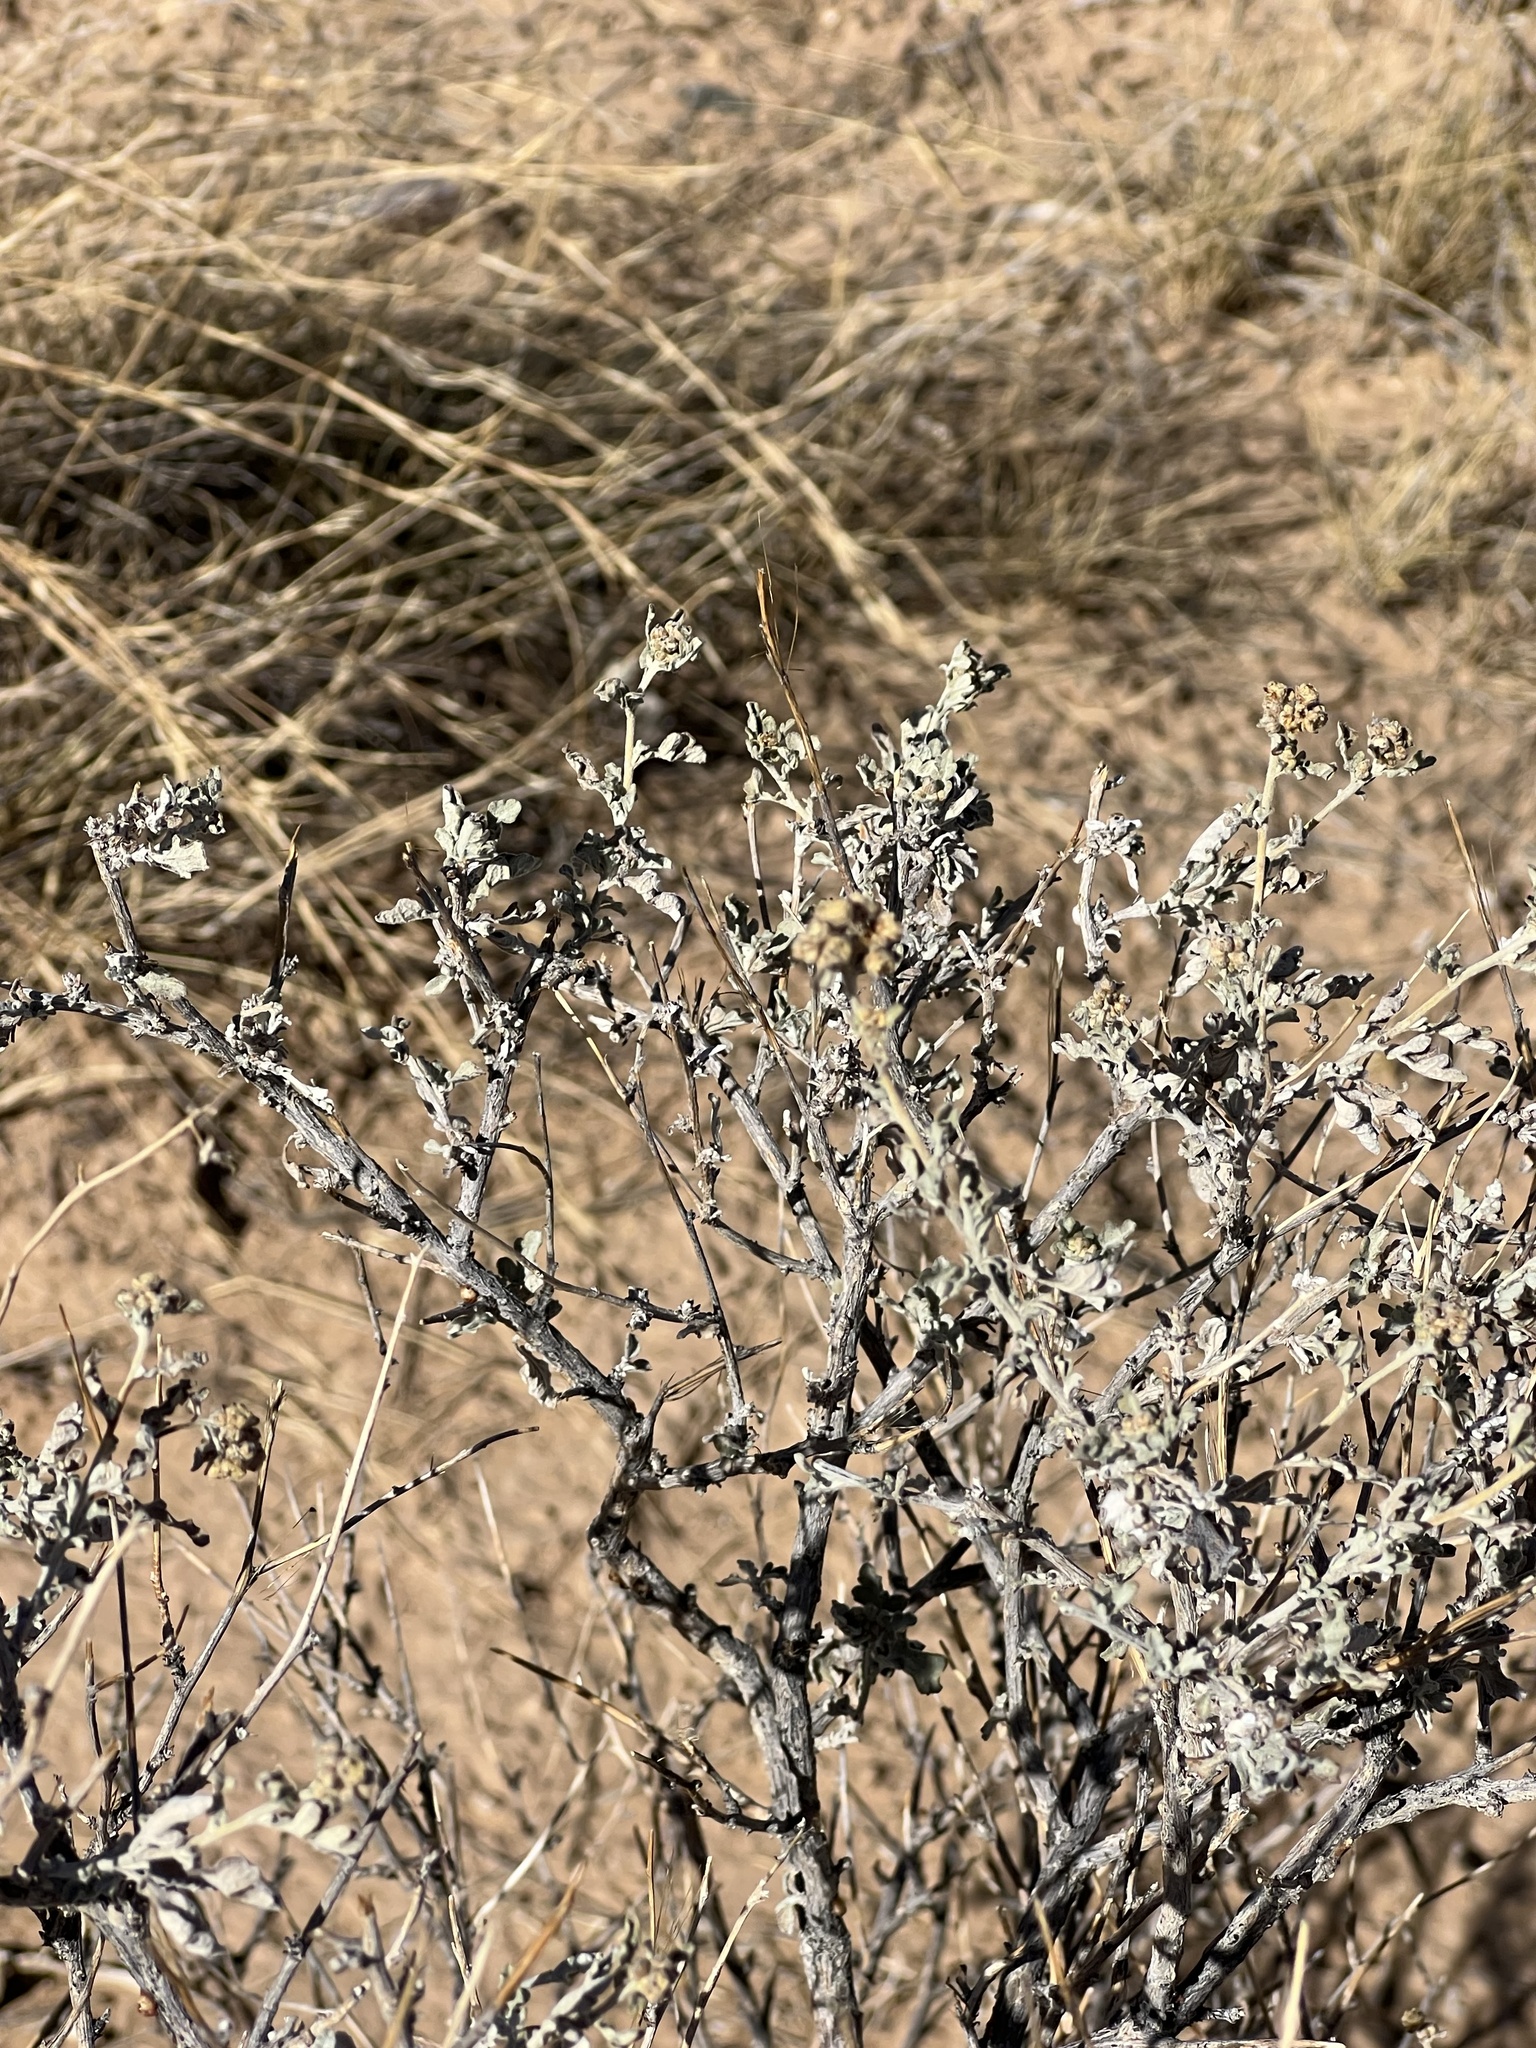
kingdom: Plantae
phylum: Tracheophyta
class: Magnoliopsida
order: Asterales
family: Asteraceae
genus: Parthenium
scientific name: Parthenium incanum
